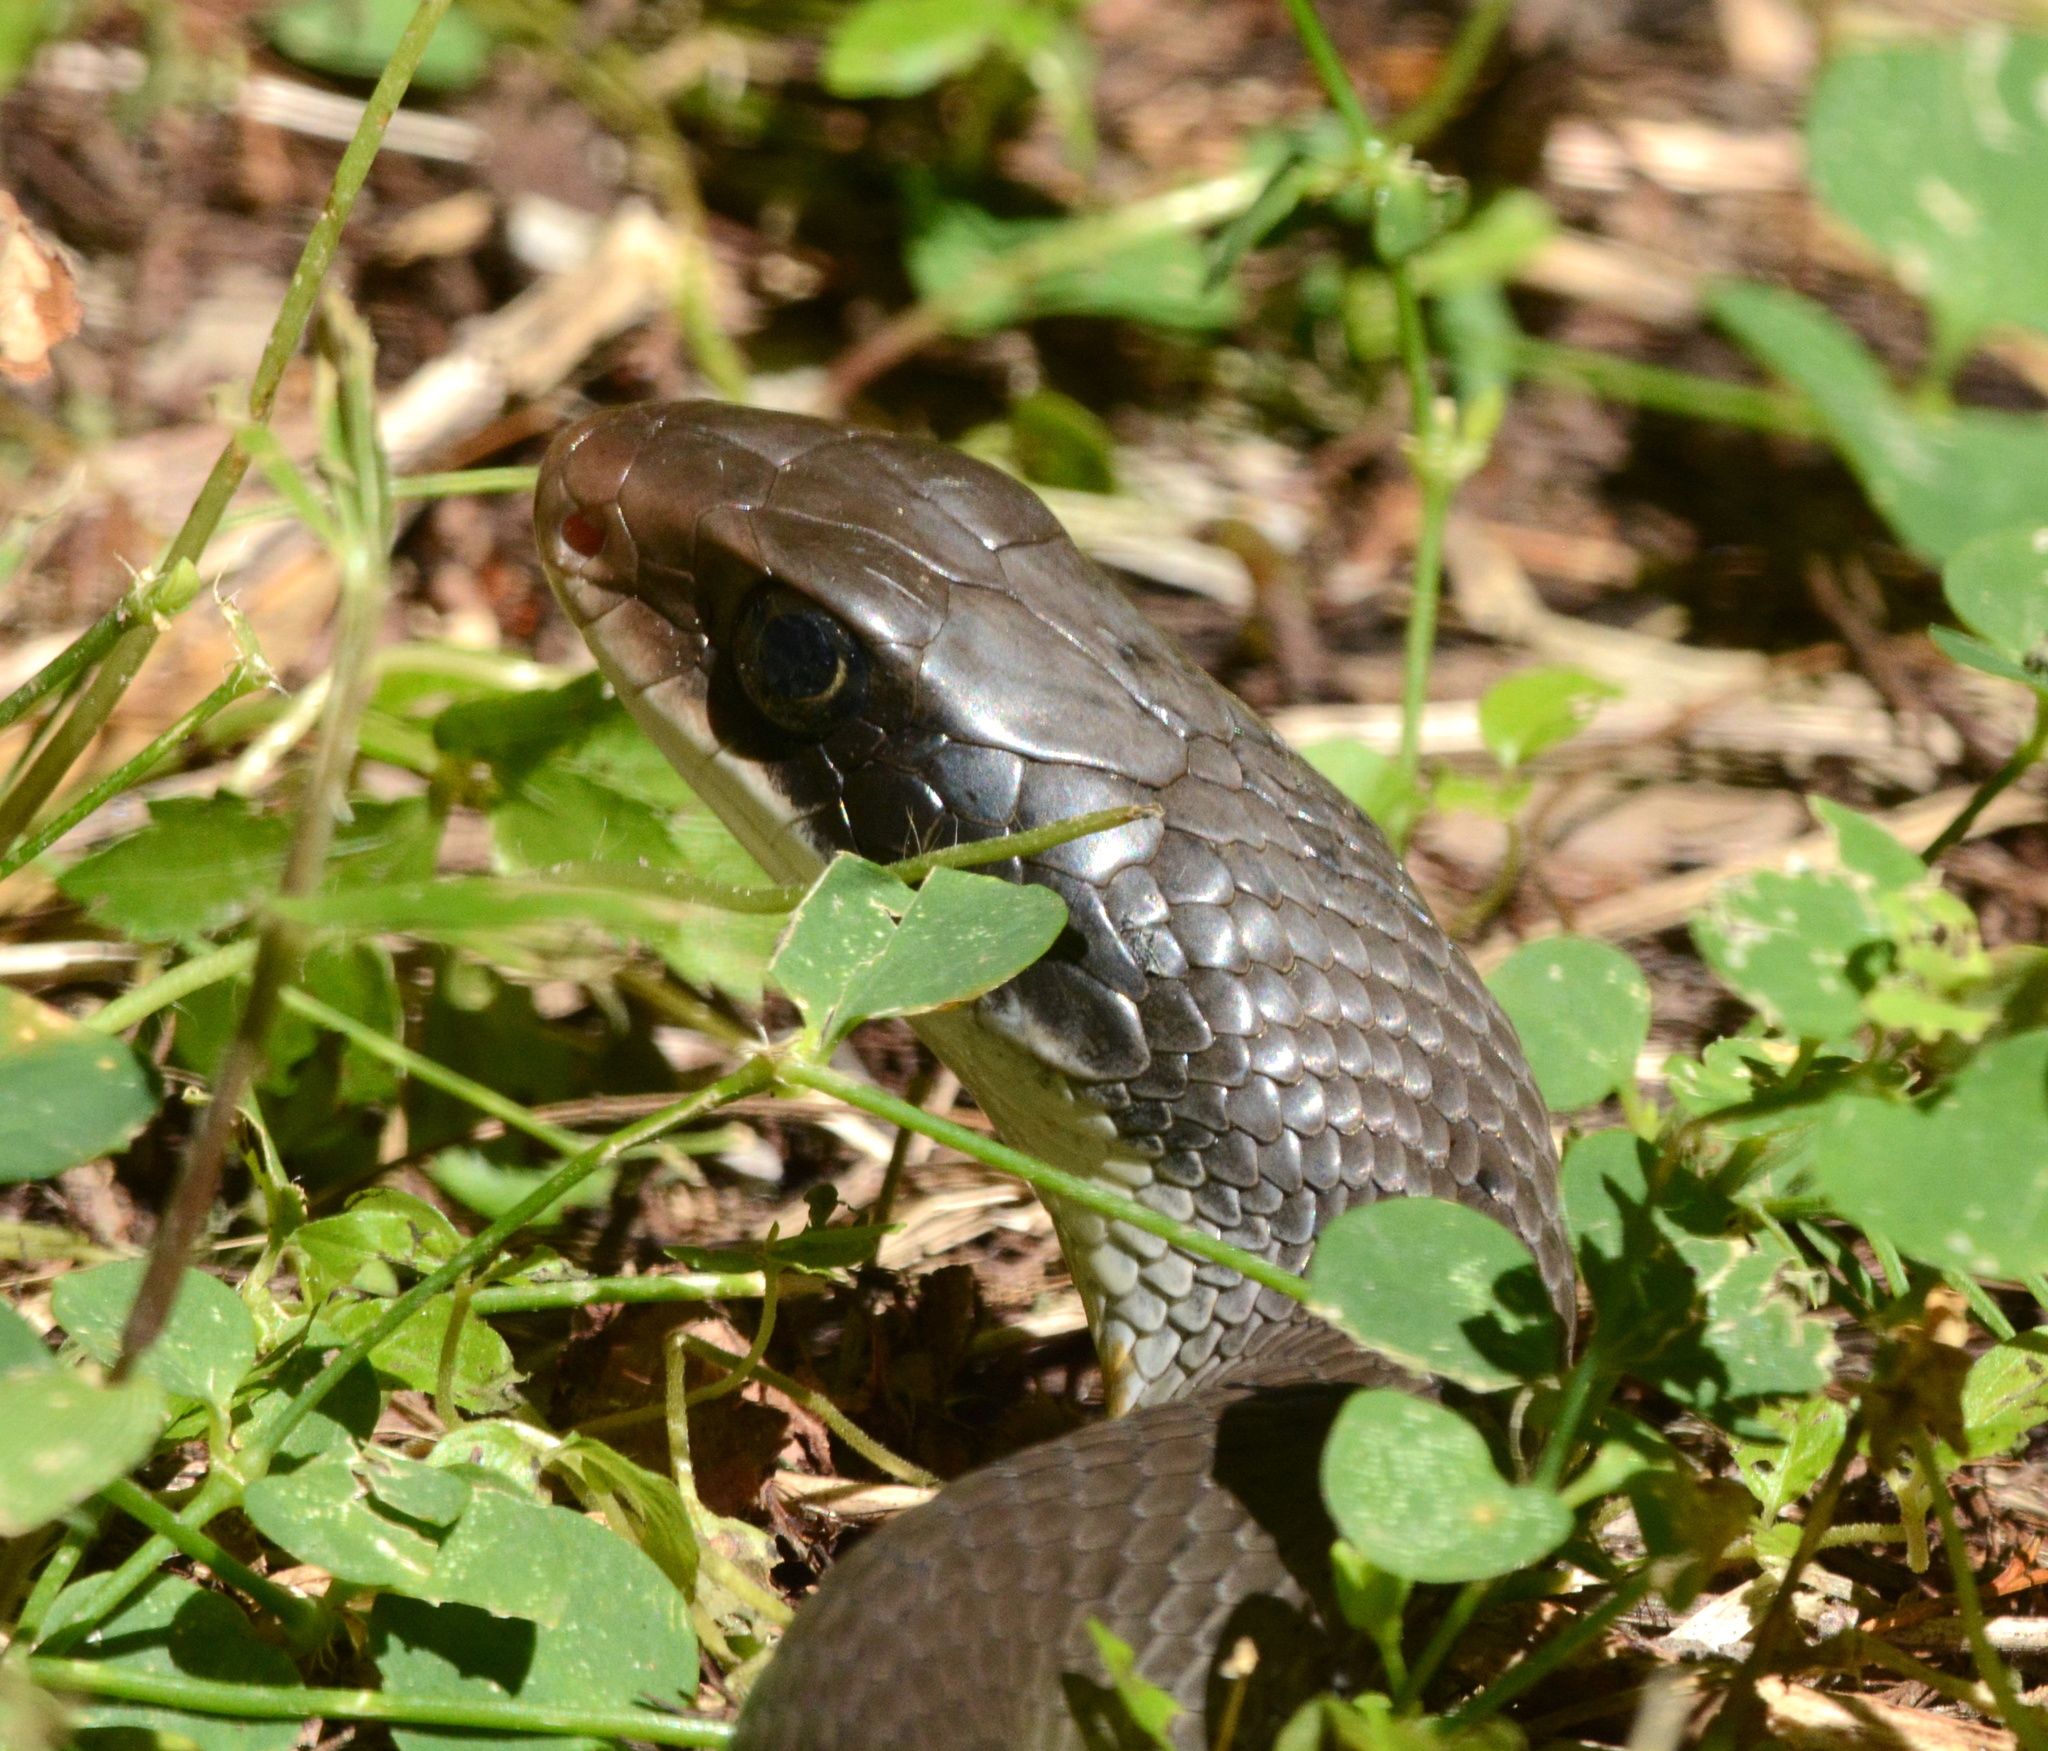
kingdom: Animalia
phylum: Chordata
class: Squamata
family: Colubridae
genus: Coluber
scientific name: Coluber constrictor
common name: Eastern racer
